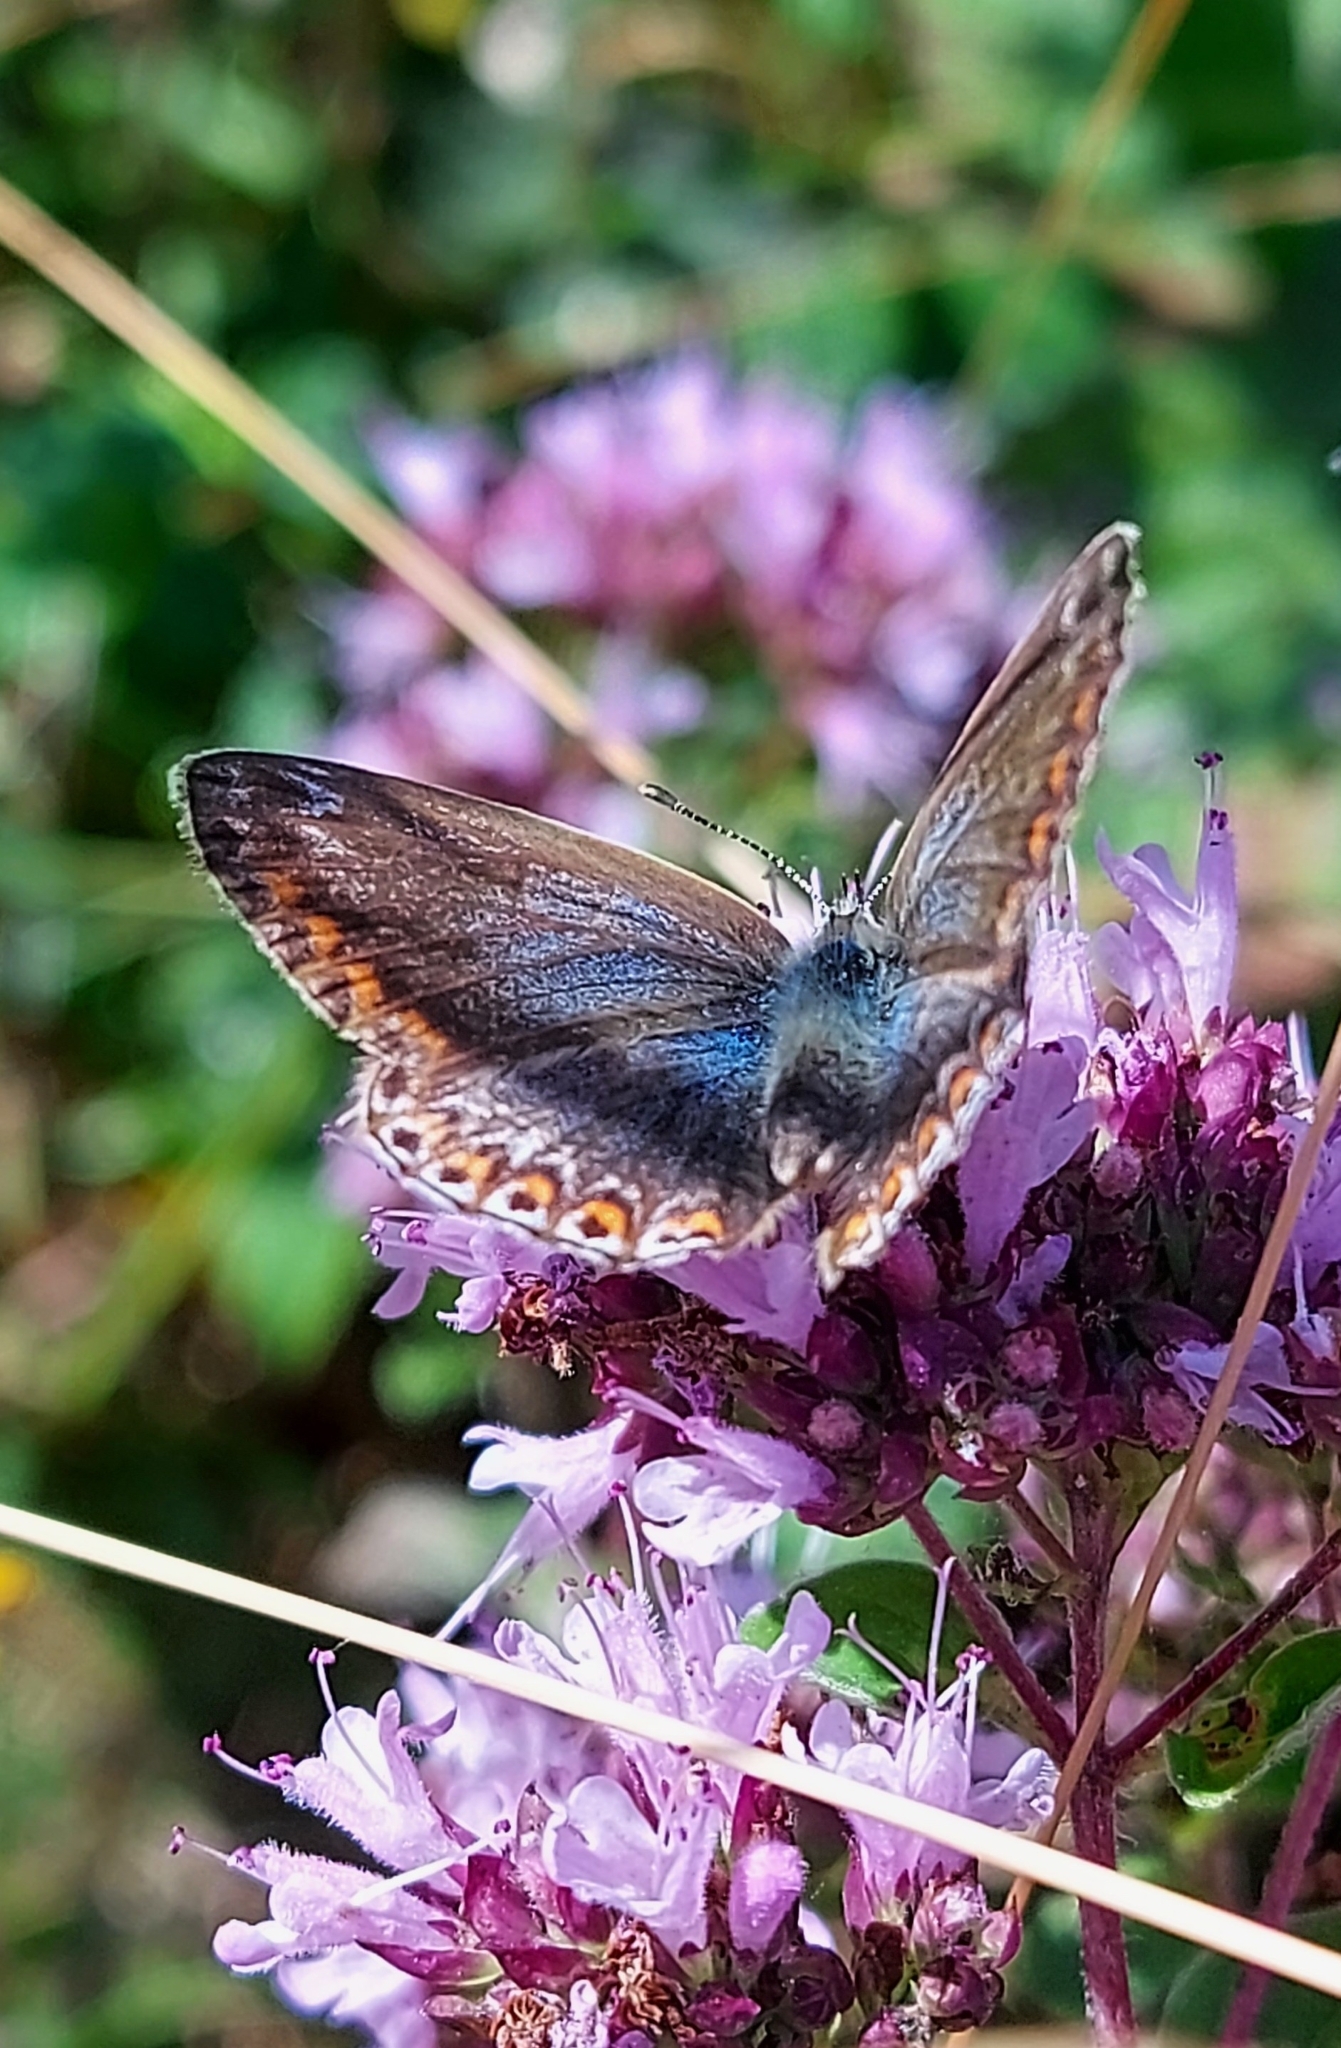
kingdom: Animalia
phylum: Arthropoda
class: Insecta
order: Lepidoptera
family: Lycaenidae
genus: Polyommatus
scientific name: Polyommatus icarus
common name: Common blue
